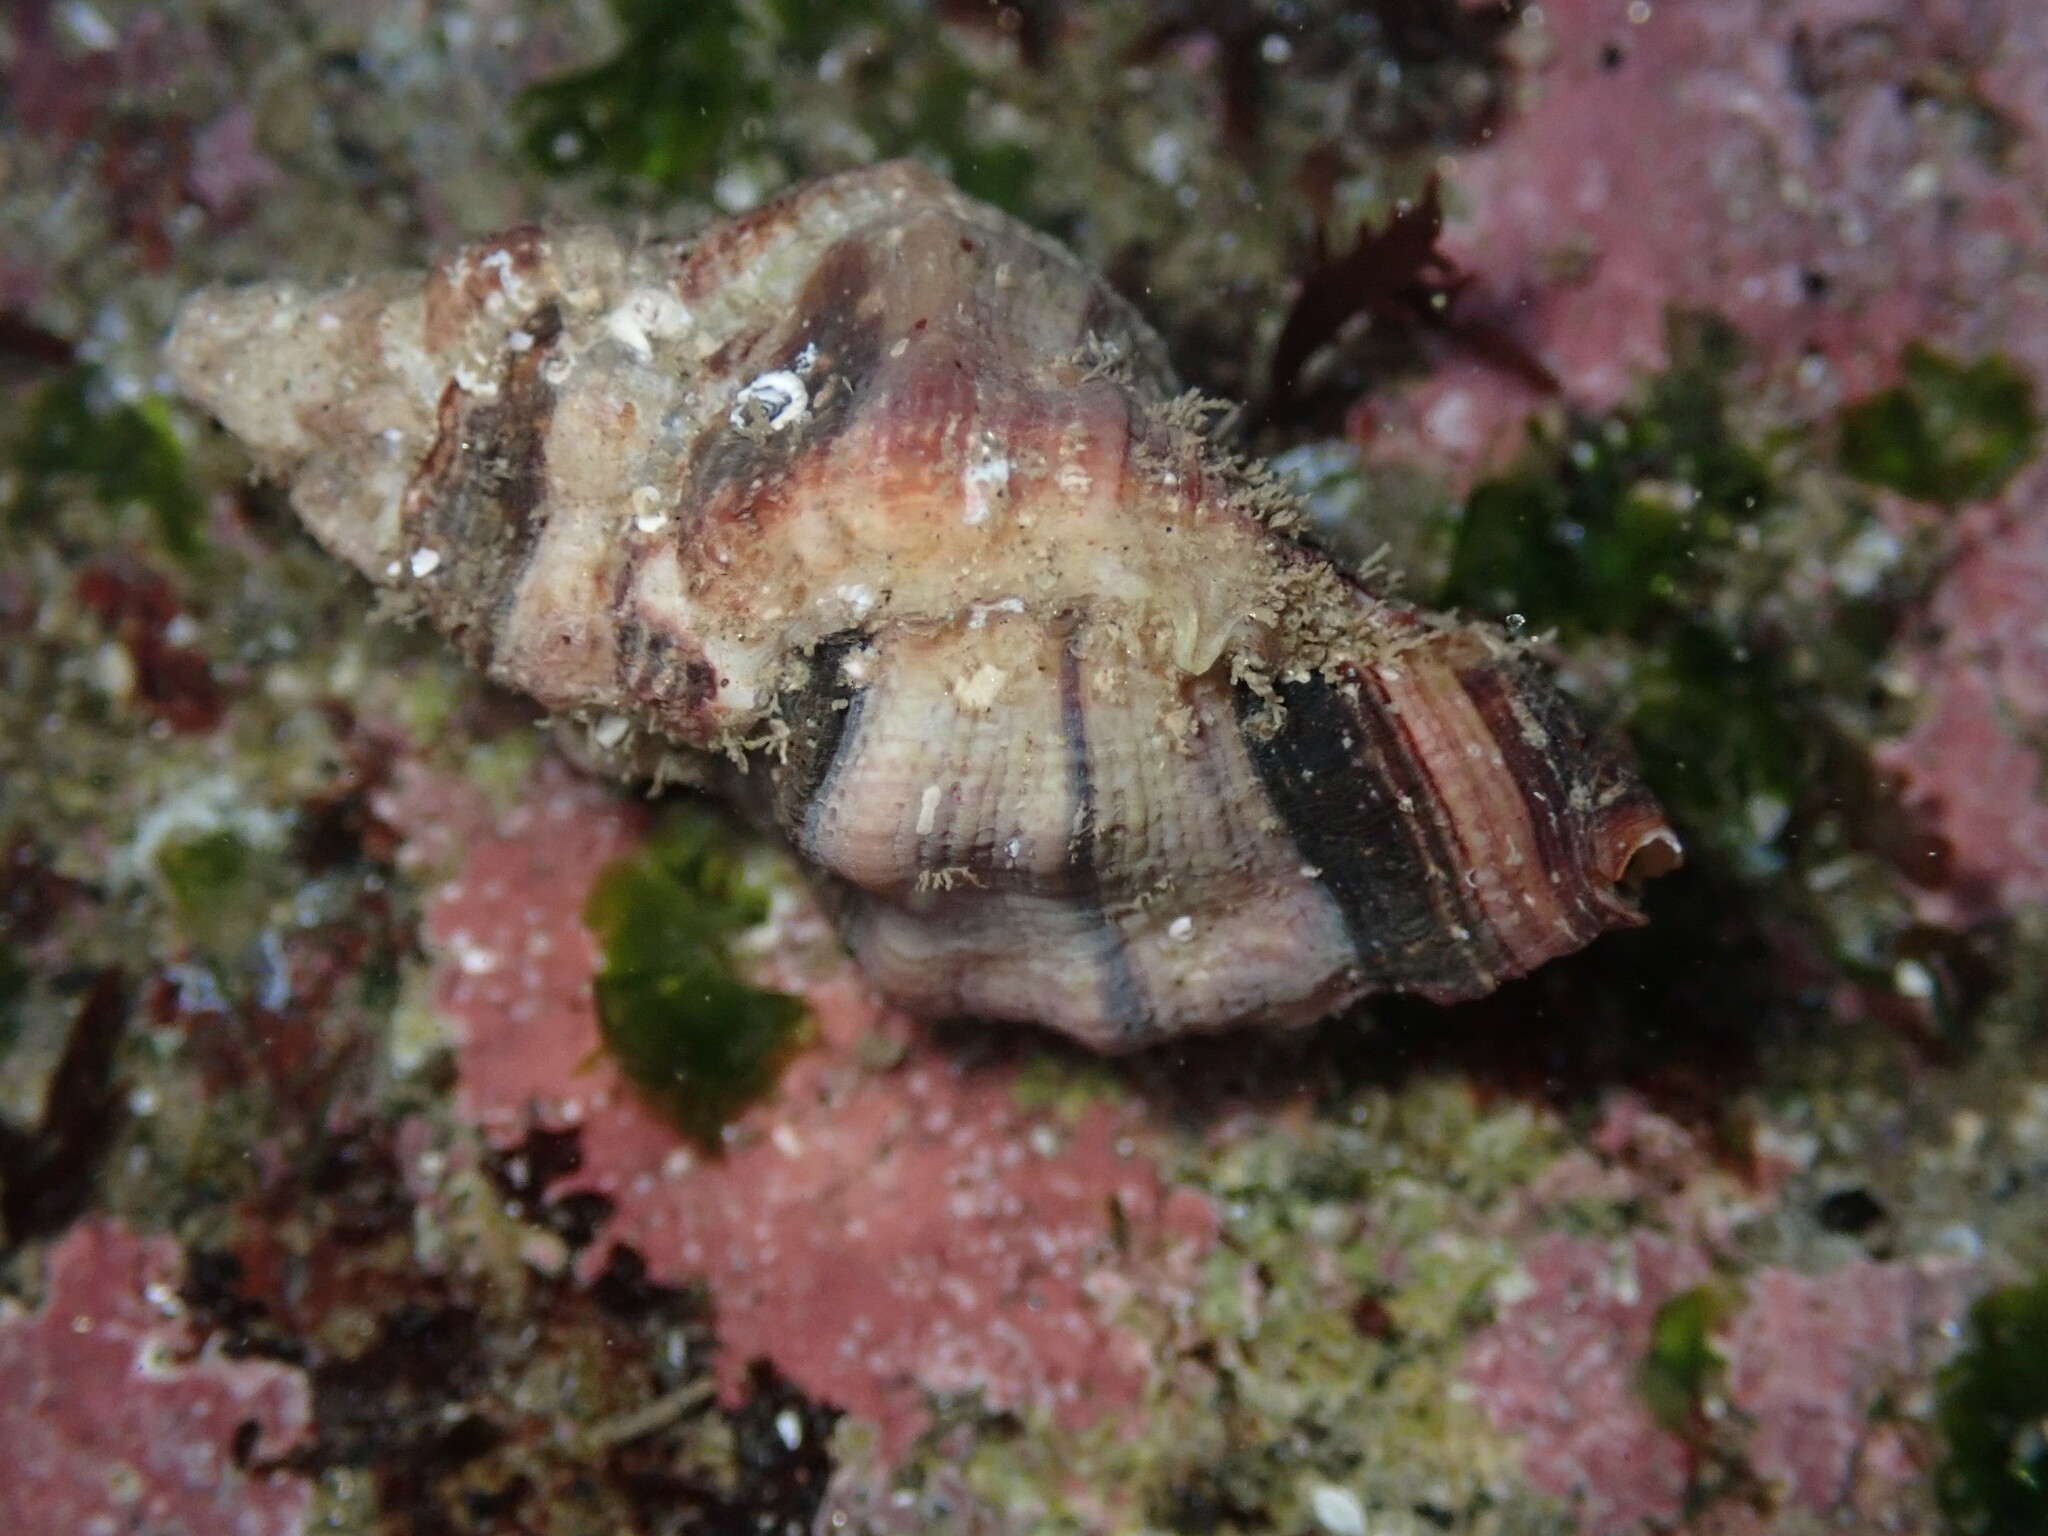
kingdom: Animalia
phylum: Mollusca
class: Gastropoda
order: Neogastropoda
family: Muricidae
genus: Ceratostoma
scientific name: Ceratostoma nuttalli
